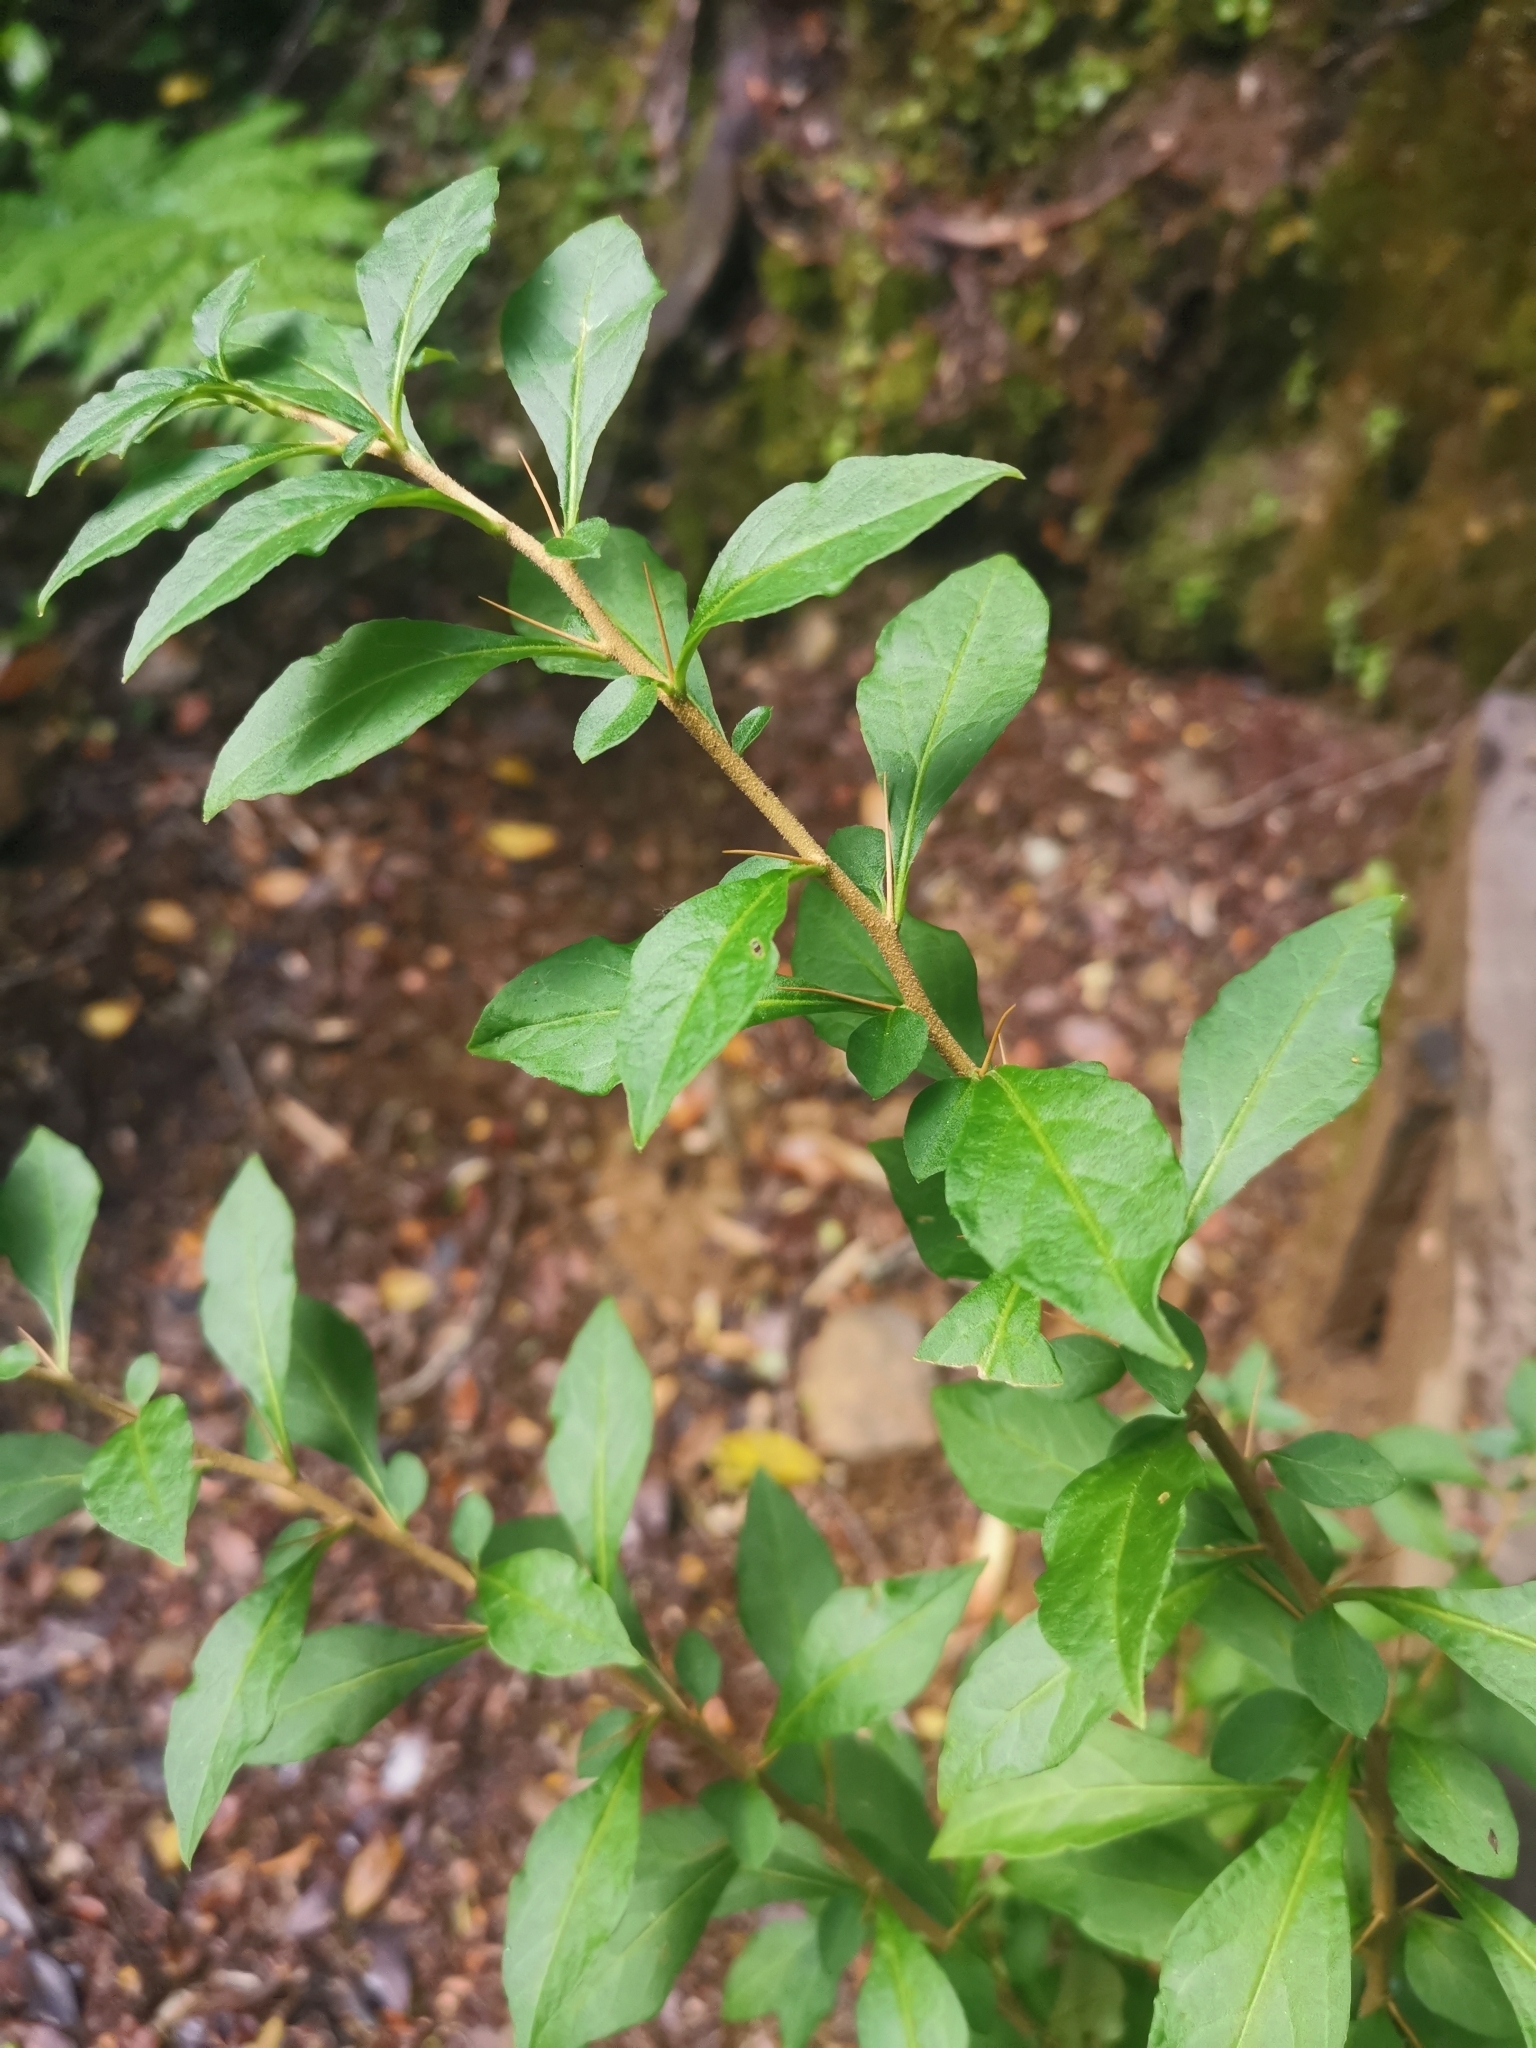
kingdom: Plantae
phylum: Tracheophyta
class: Magnoliopsida
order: Solanales
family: Solanaceae
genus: Latua
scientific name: Latua pubiflora
